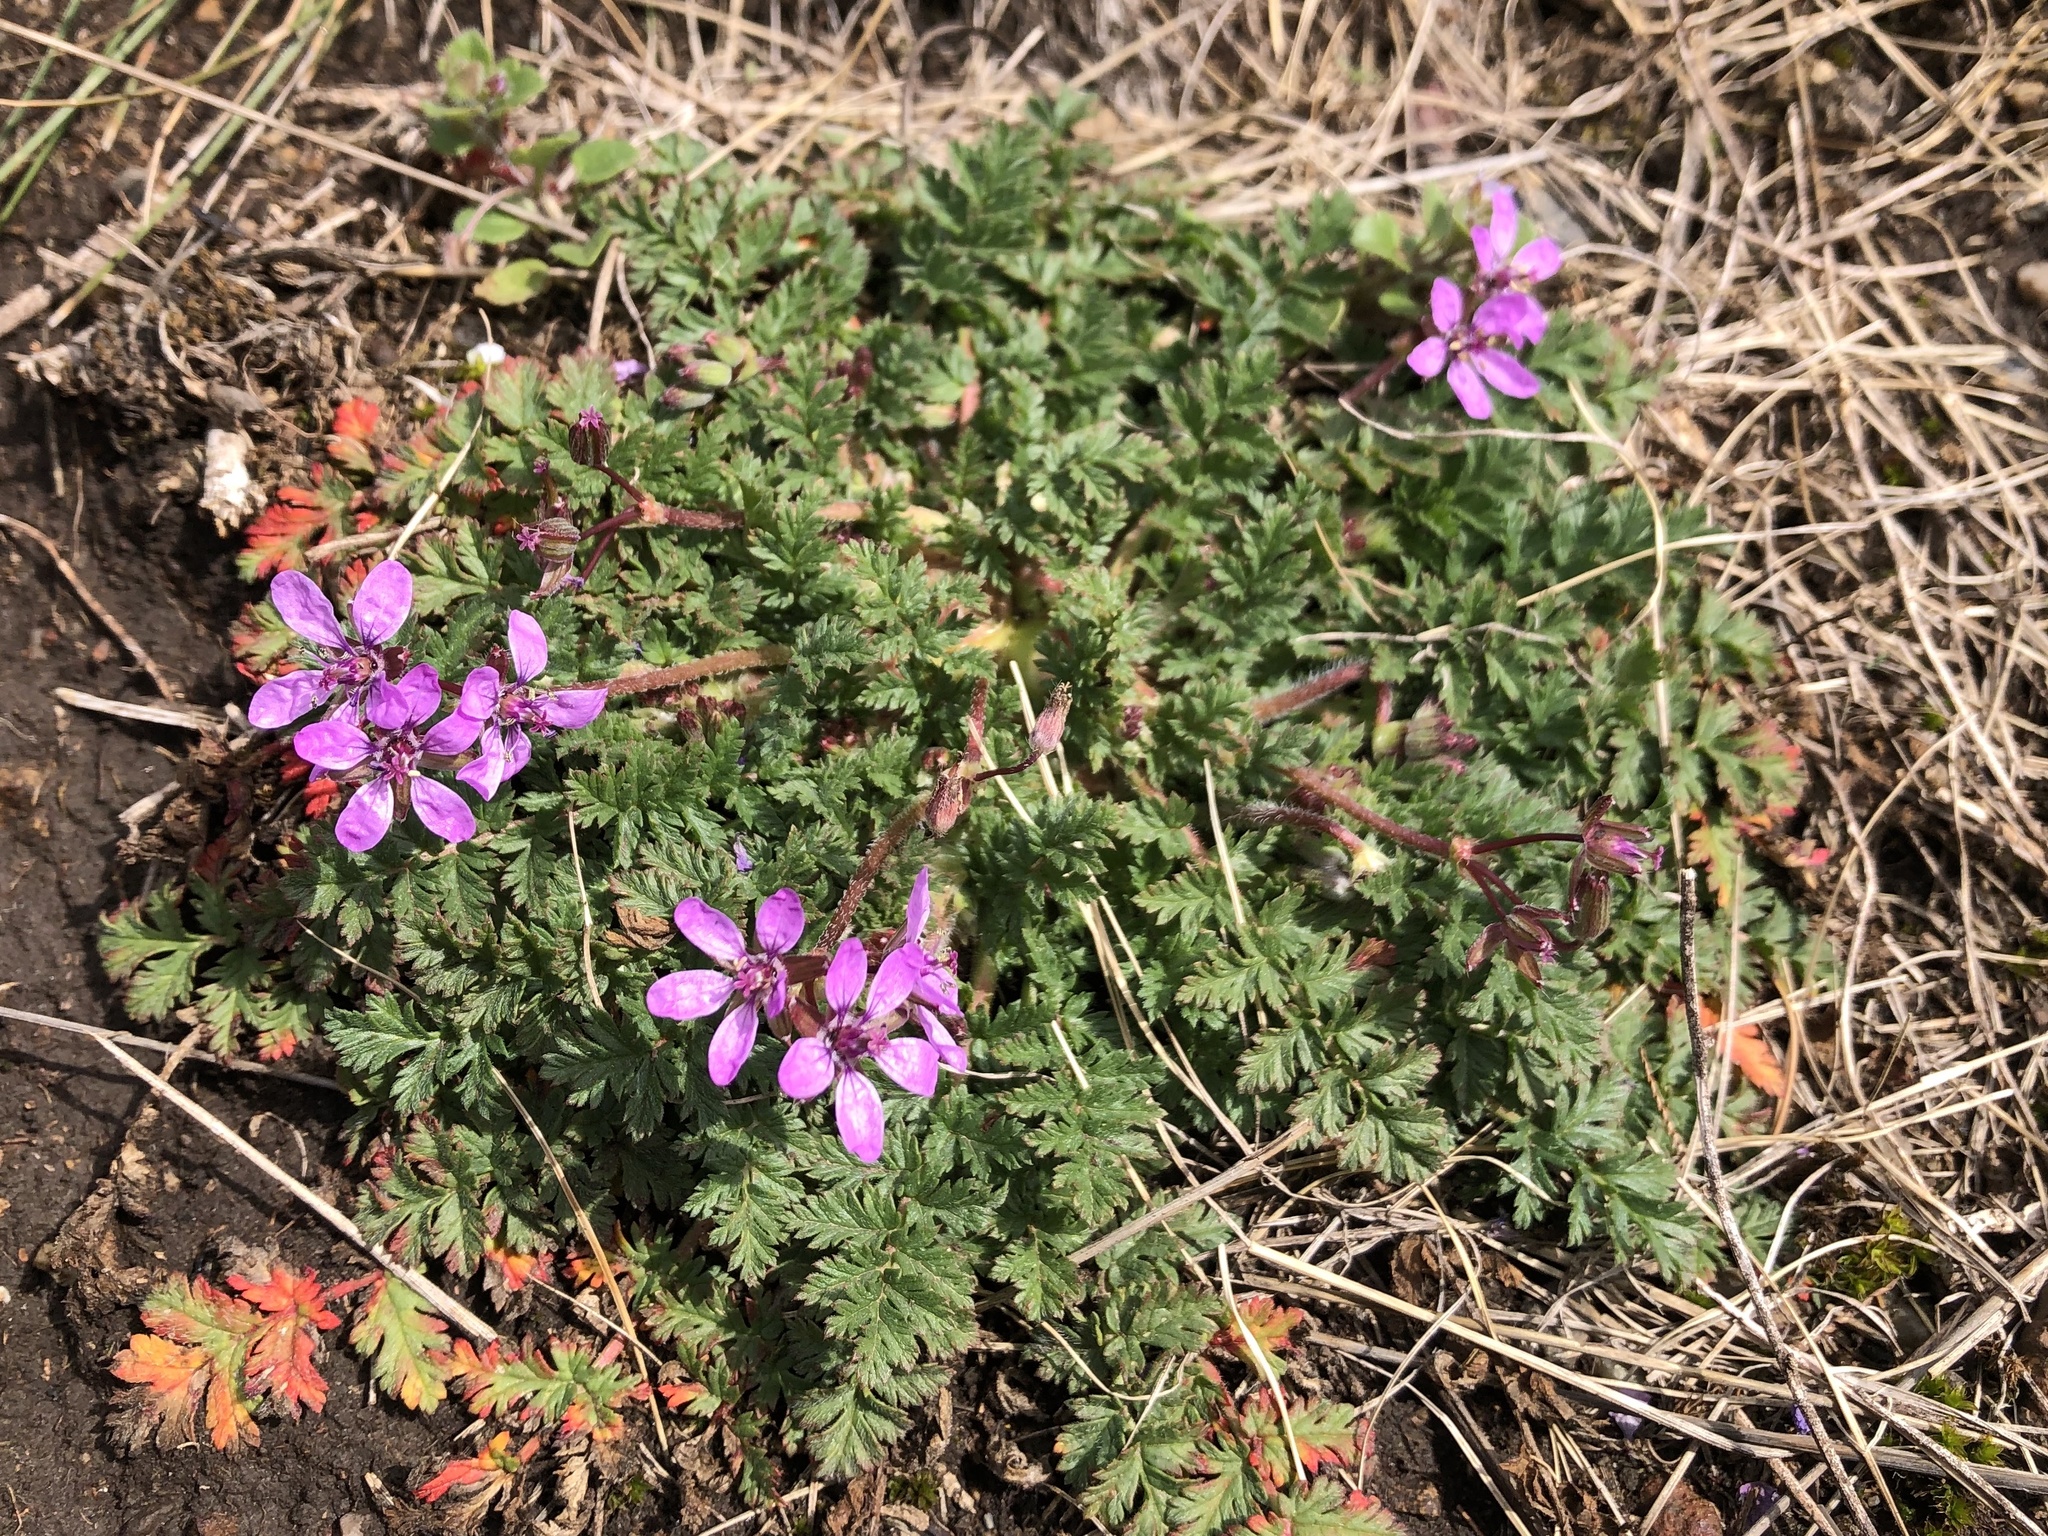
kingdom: Plantae
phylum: Tracheophyta
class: Magnoliopsida
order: Geraniales
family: Geraniaceae
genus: Erodium
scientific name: Erodium cicutarium
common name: Common stork's-bill
